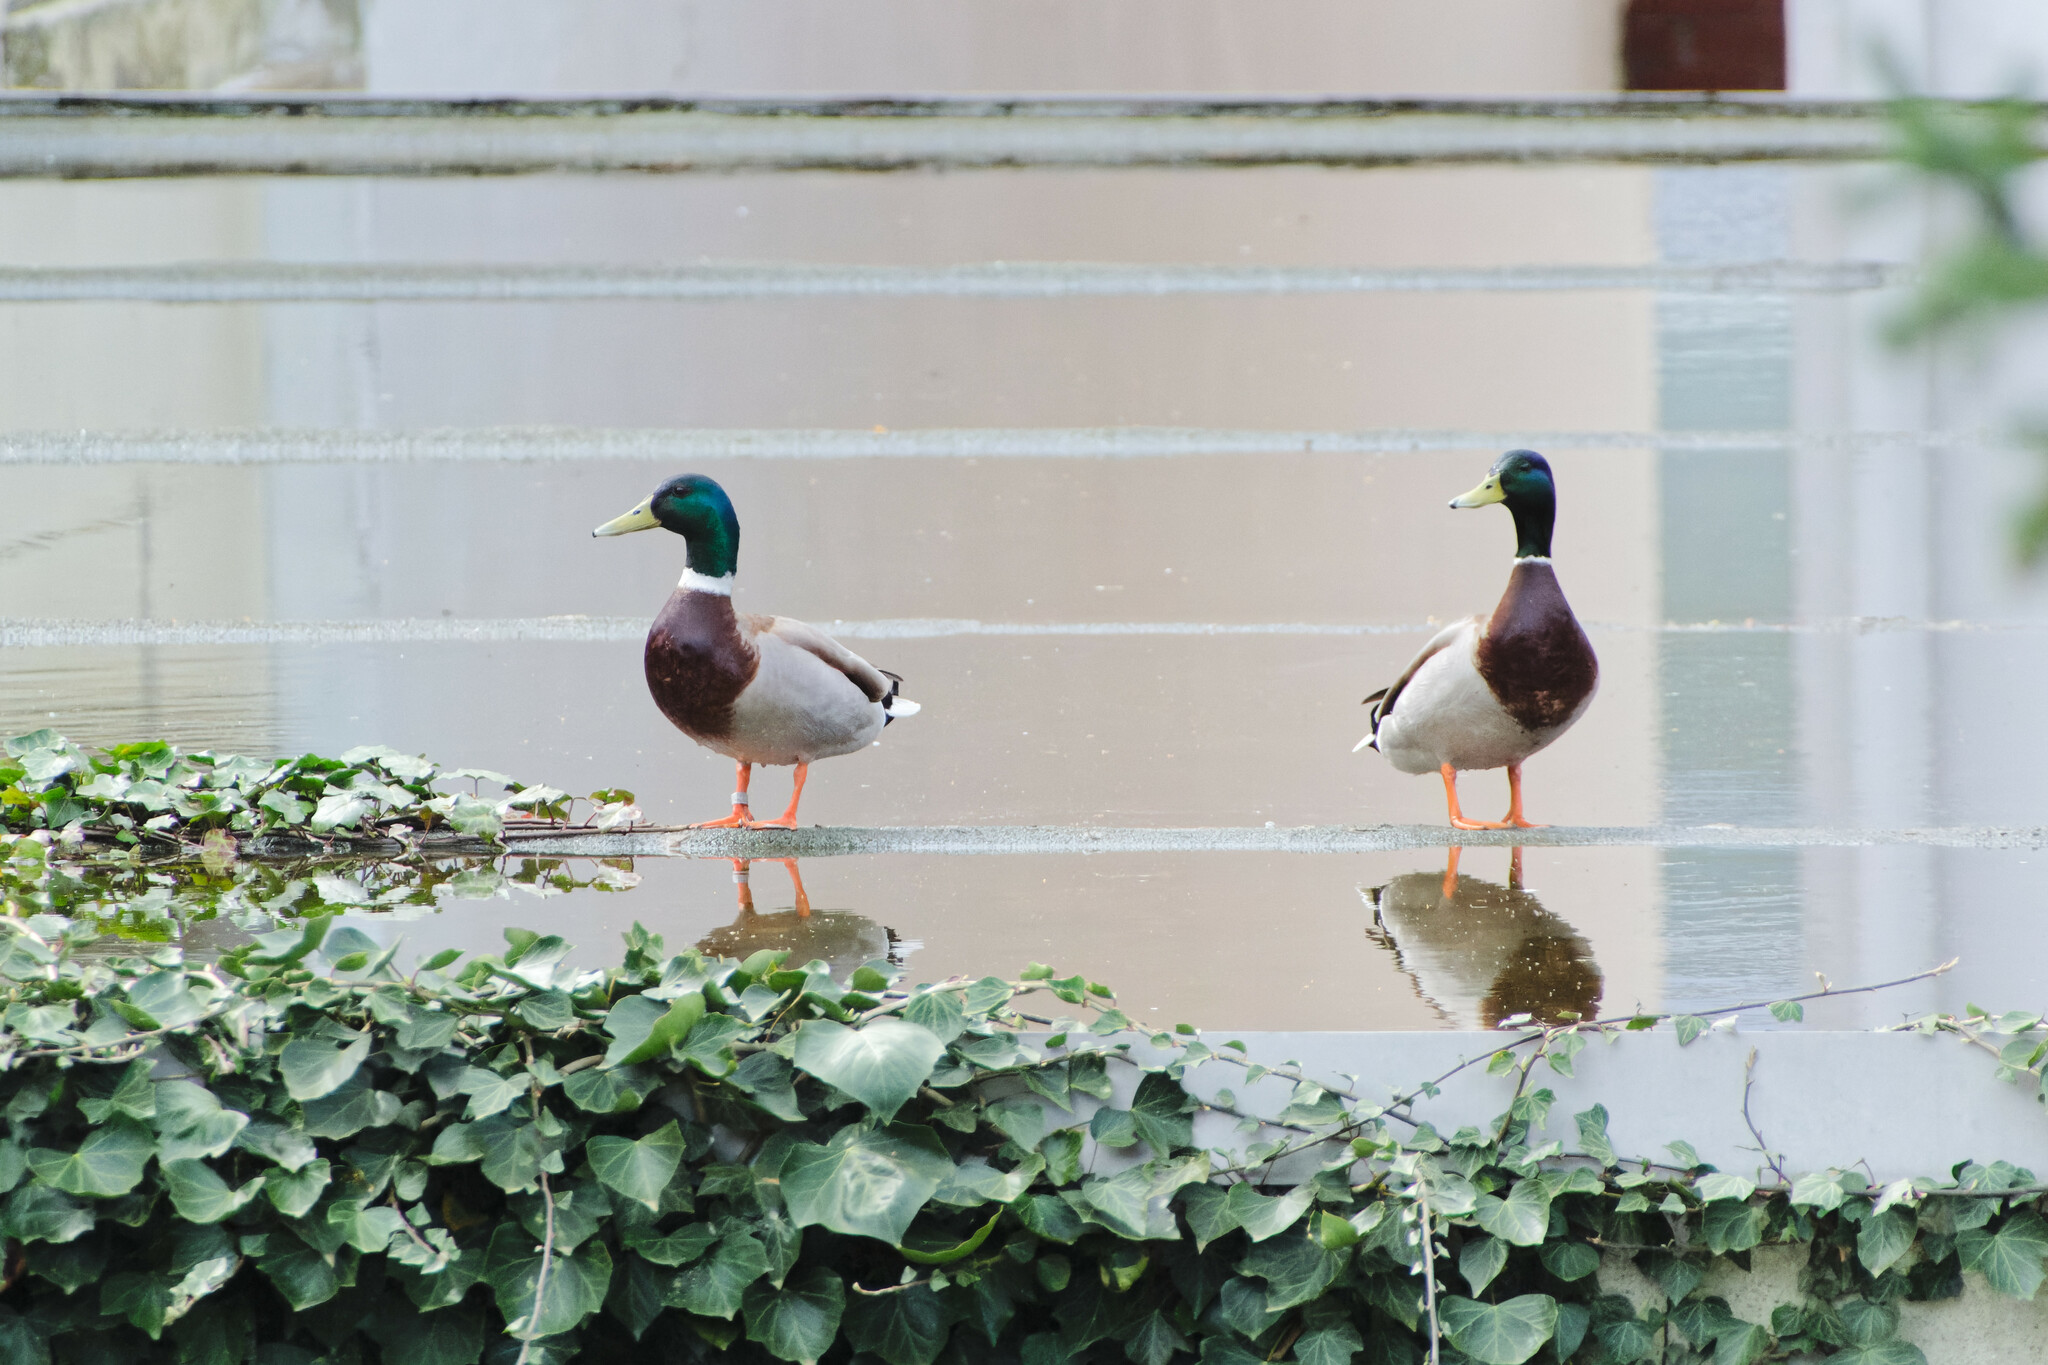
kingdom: Animalia
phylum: Chordata
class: Aves
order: Anseriformes
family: Anatidae
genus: Anas
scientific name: Anas platyrhynchos
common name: Mallard
